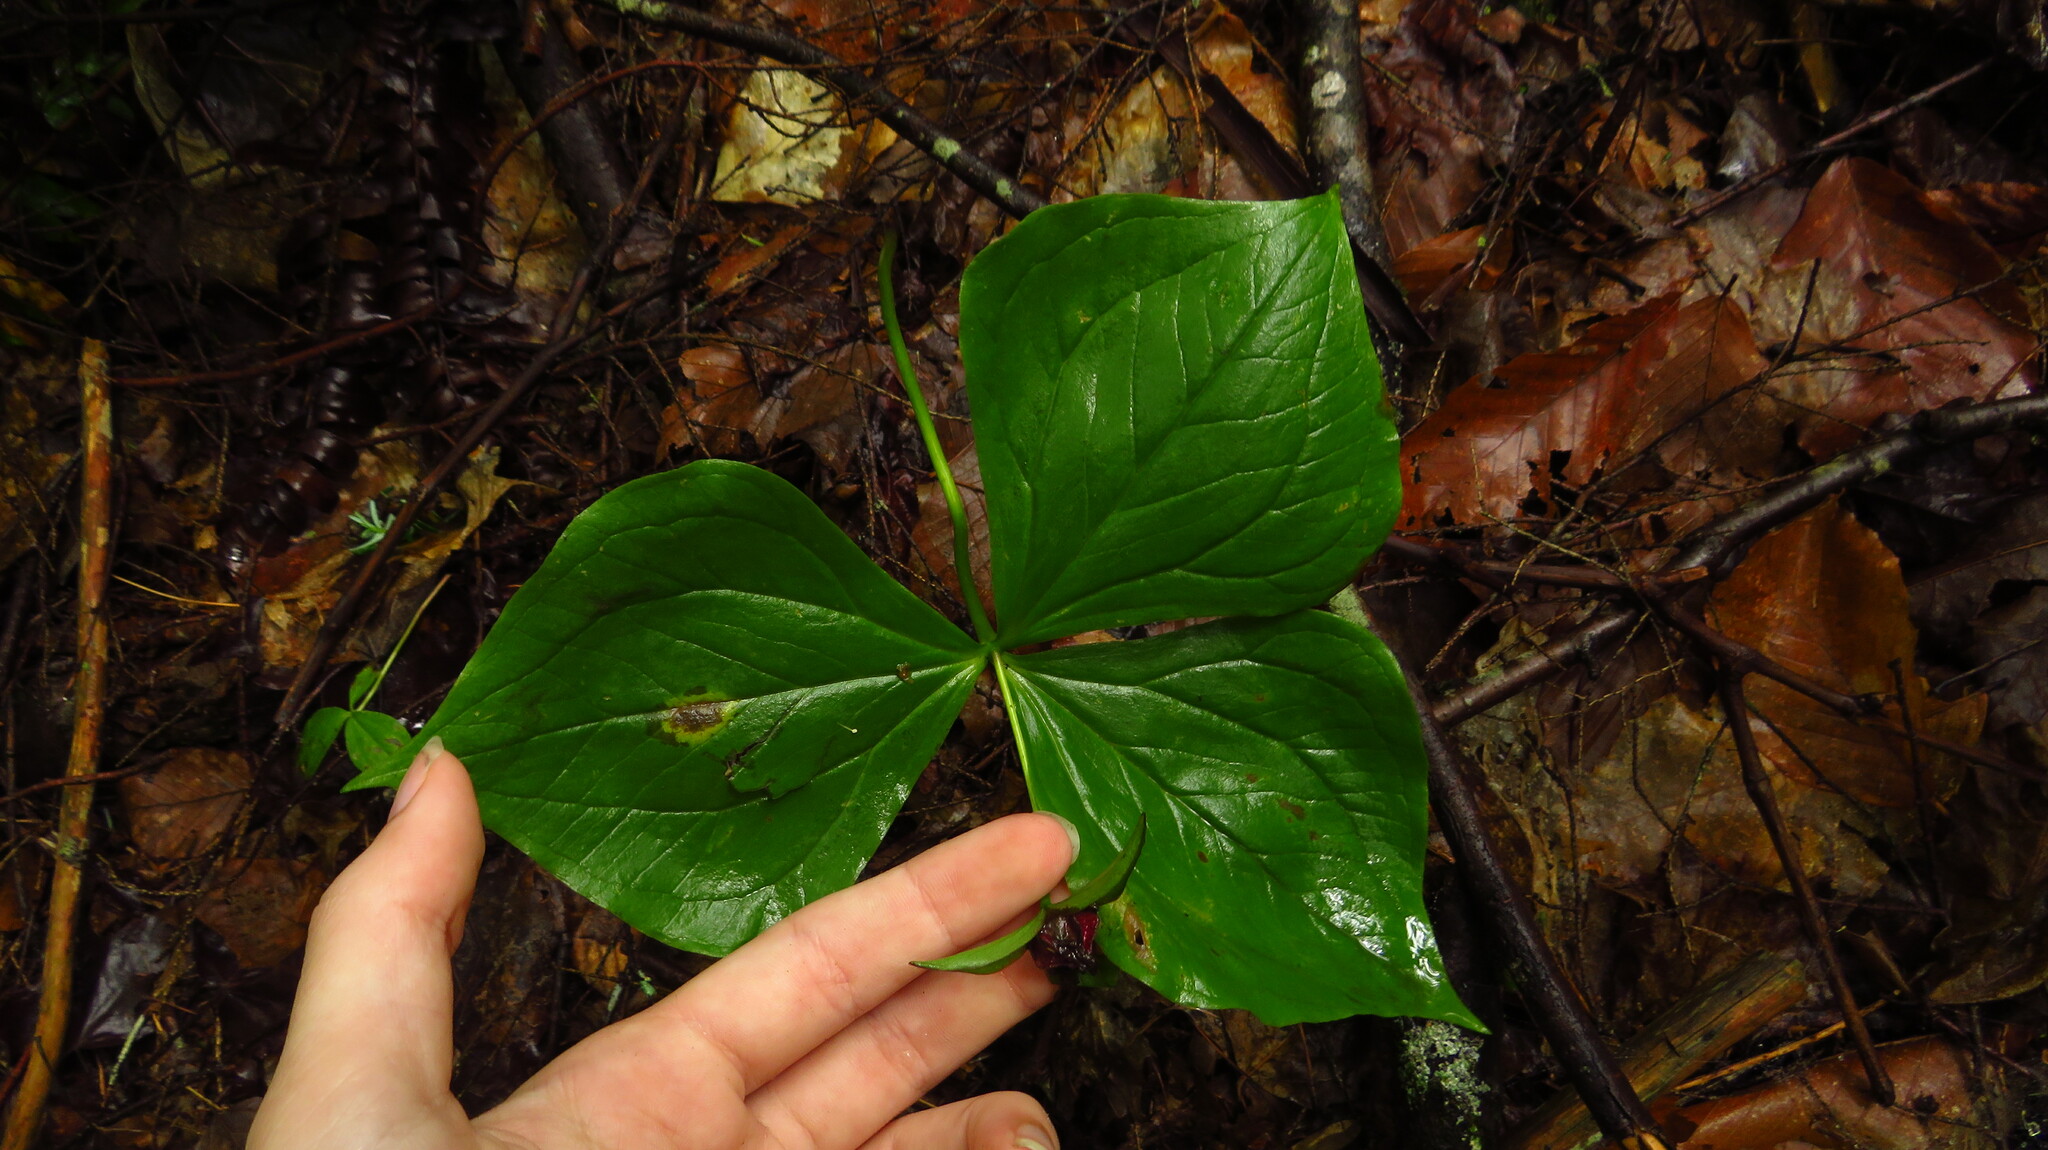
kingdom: Plantae
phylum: Tracheophyta
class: Liliopsida
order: Liliales
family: Melanthiaceae
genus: Trillium
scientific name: Trillium erectum
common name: Purple trillium
